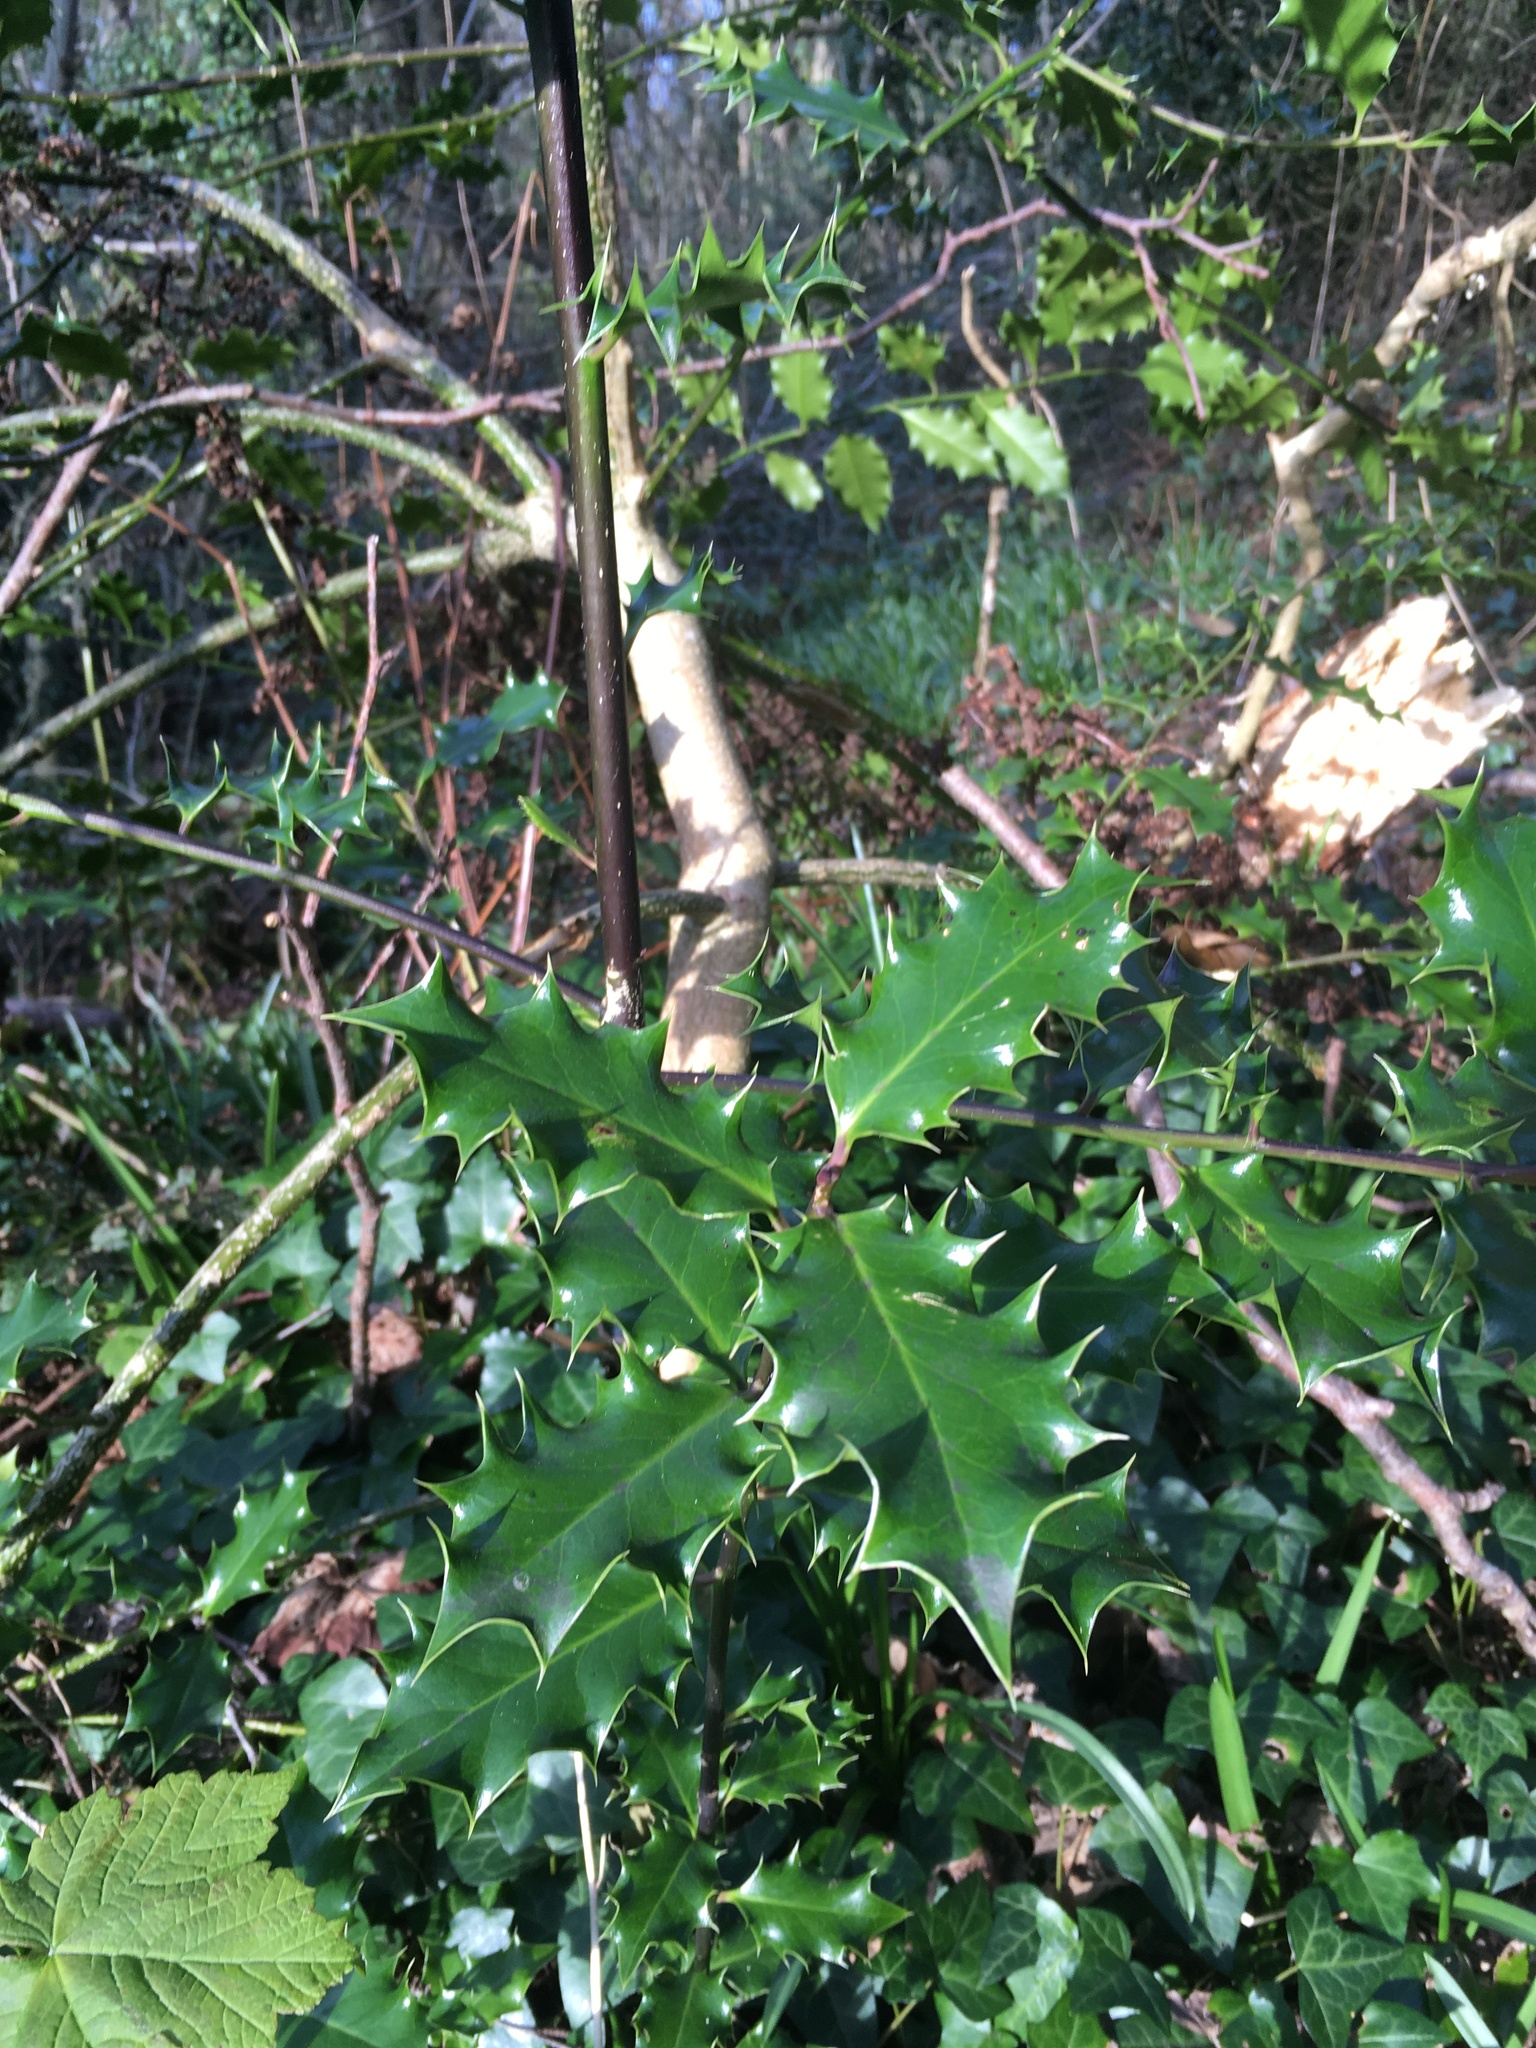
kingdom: Plantae
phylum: Tracheophyta
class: Magnoliopsida
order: Aquifoliales
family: Aquifoliaceae
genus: Ilex
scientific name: Ilex aquifolium
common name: English holly
